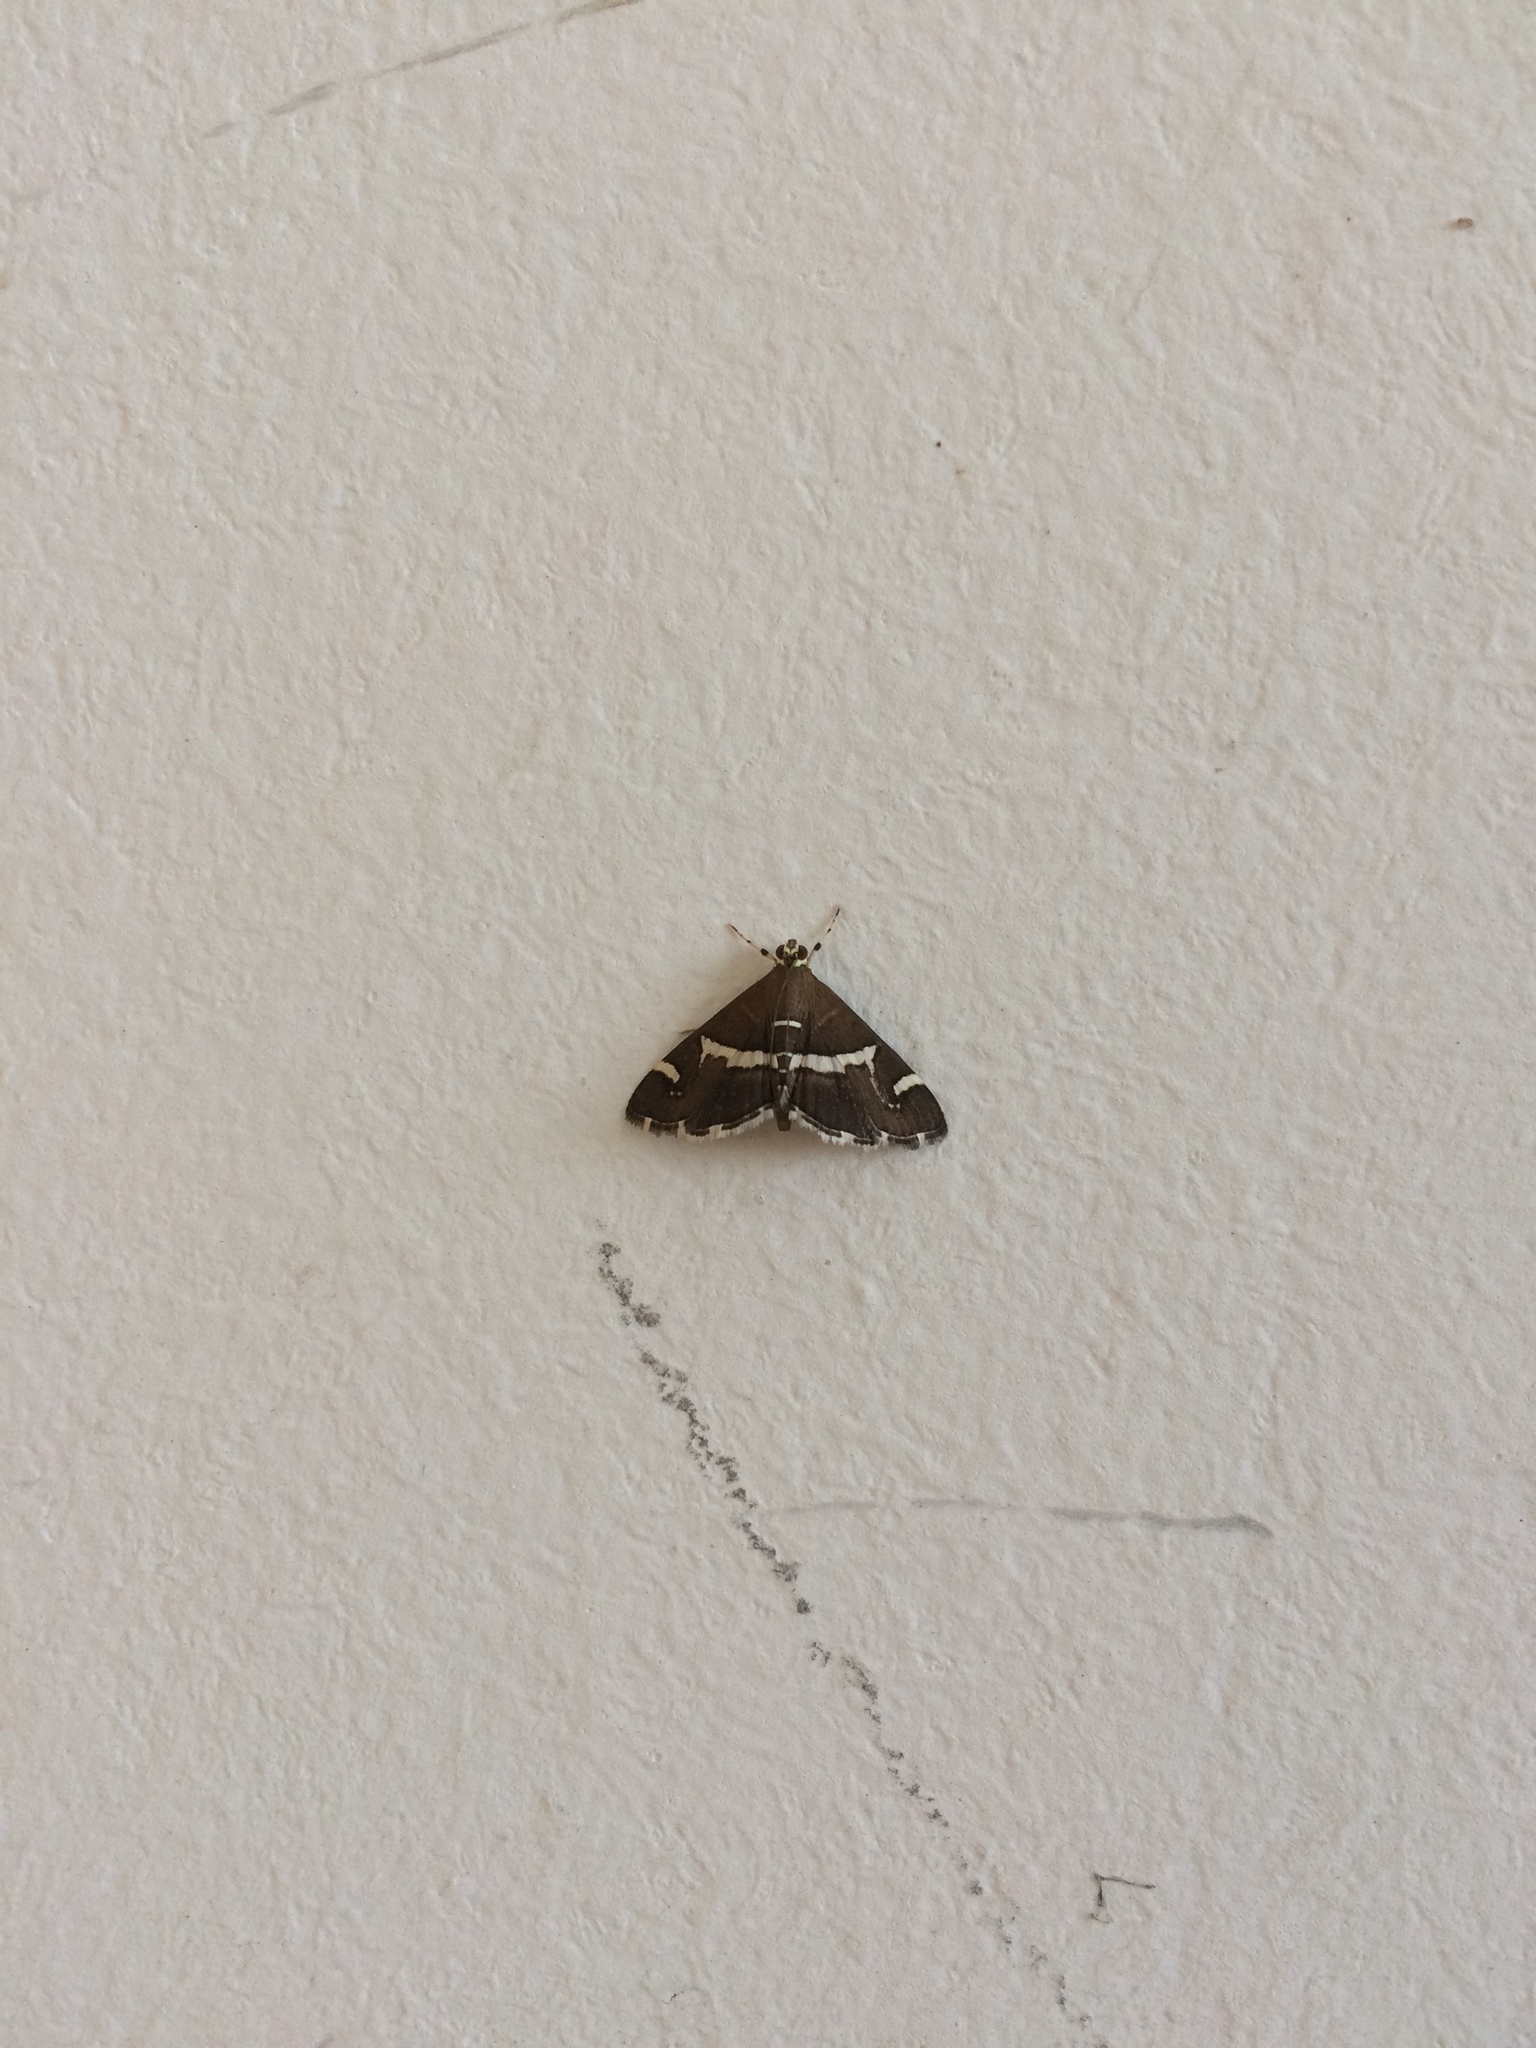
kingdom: Animalia
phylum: Arthropoda
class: Insecta
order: Lepidoptera
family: Crambidae
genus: Spoladea
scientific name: Spoladea recurvalis
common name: Beet webworm moth
